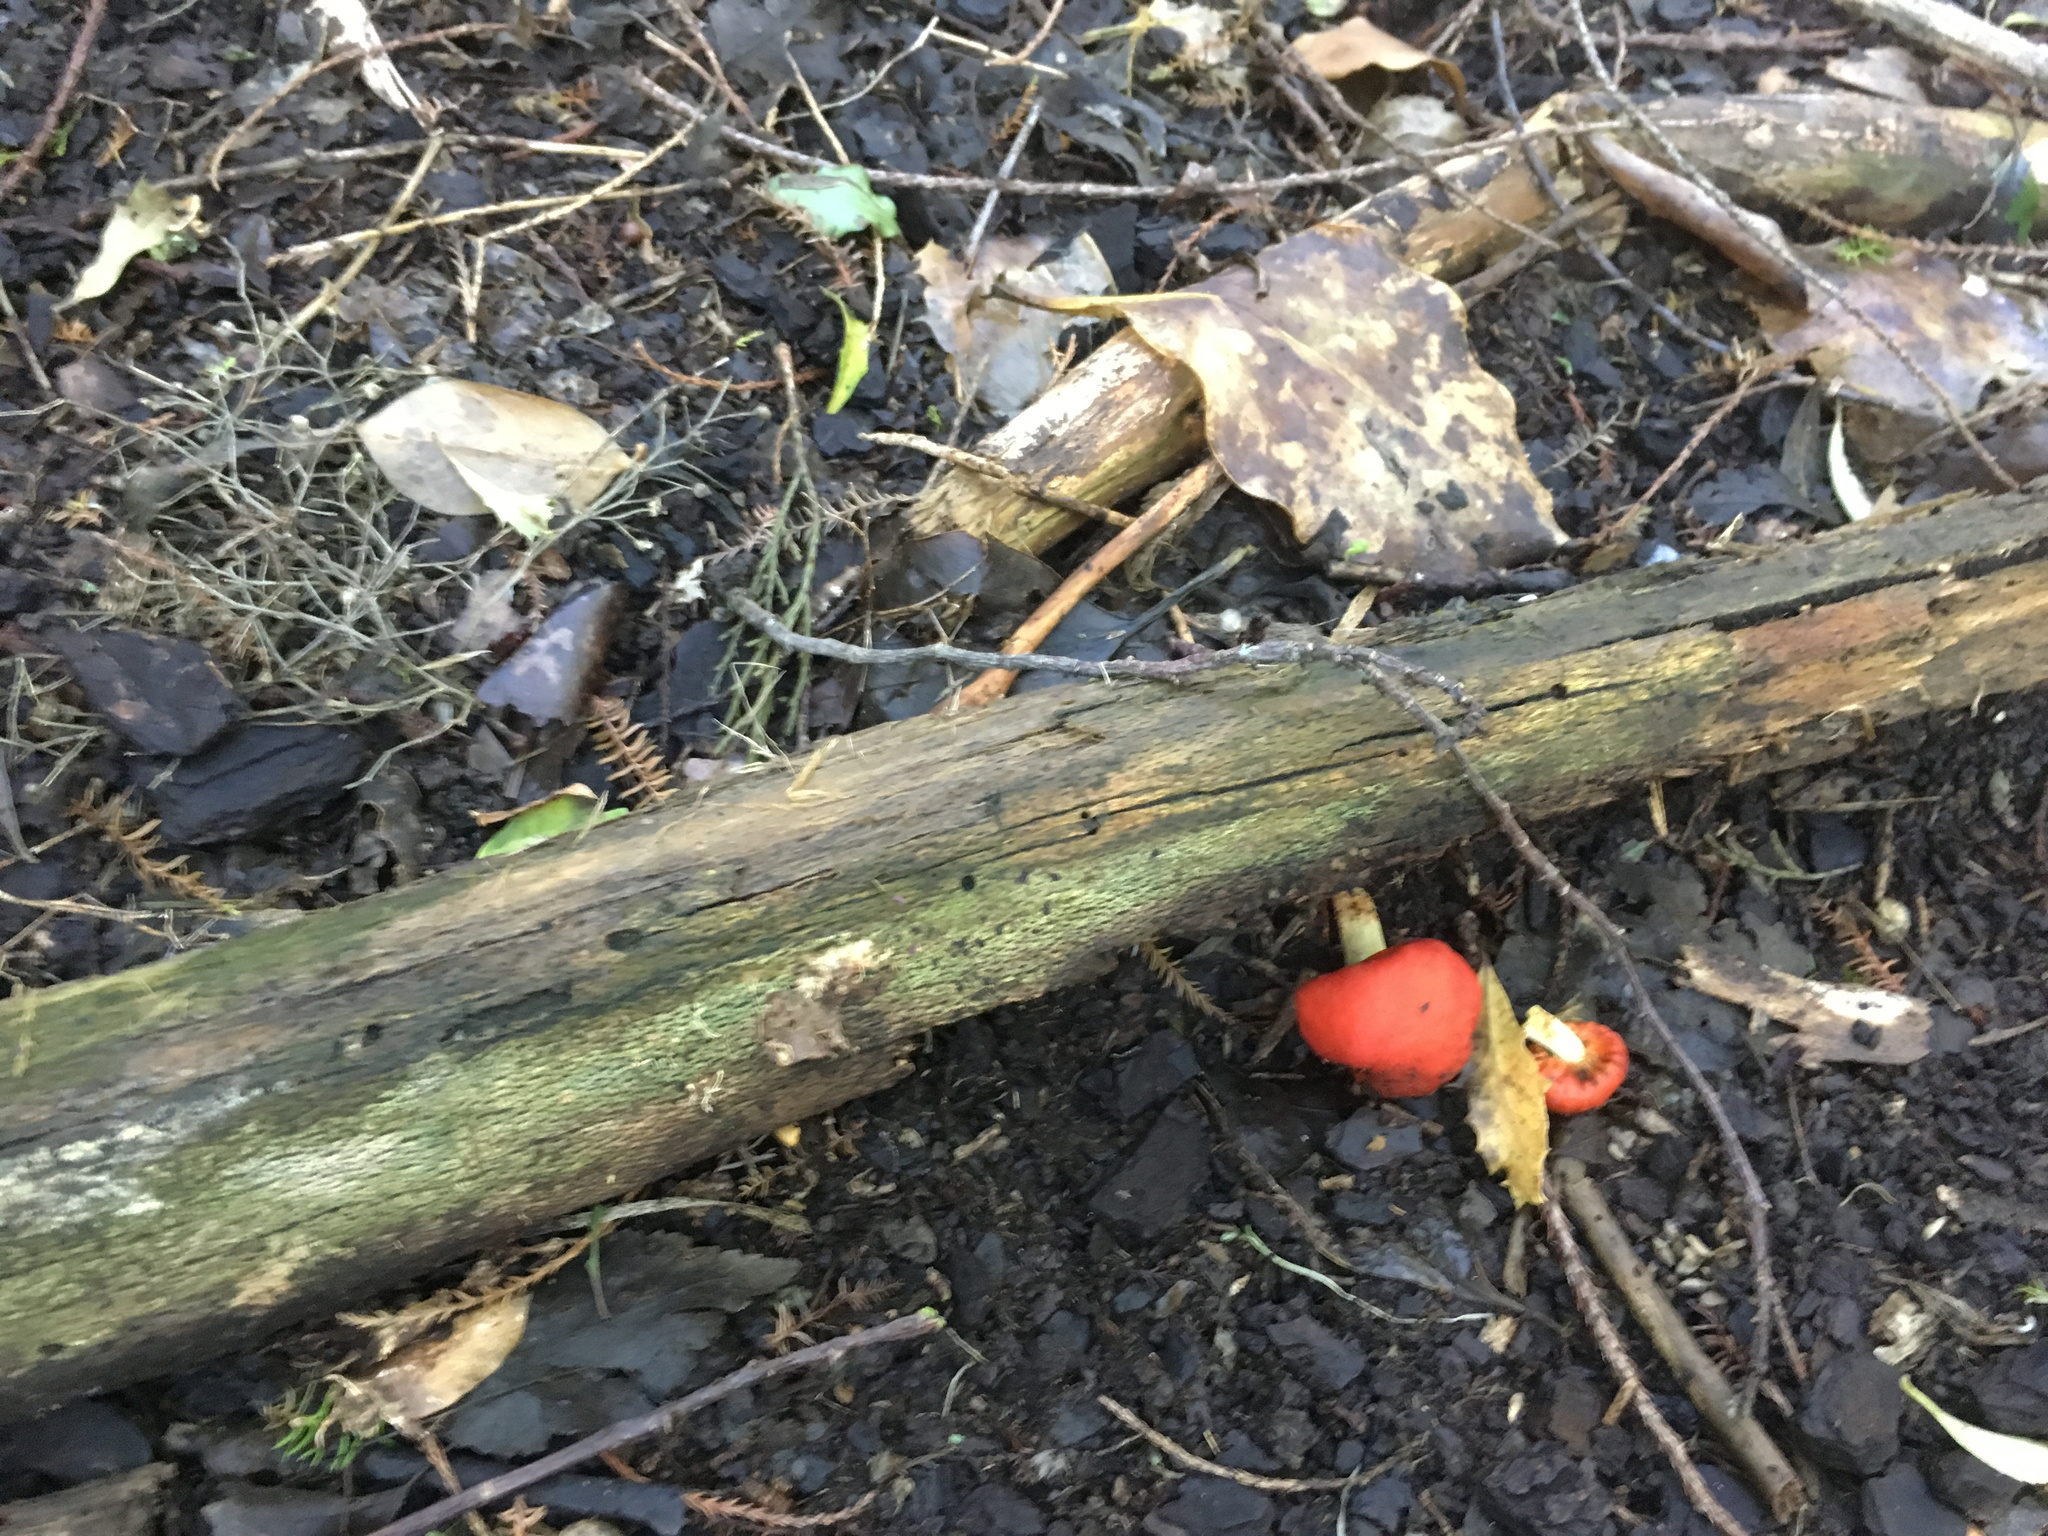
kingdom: Fungi
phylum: Basidiomycota
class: Agaricomycetes
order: Agaricales
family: Strophariaceae
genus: Leratiomyces
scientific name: Leratiomyces erythrocephalus
